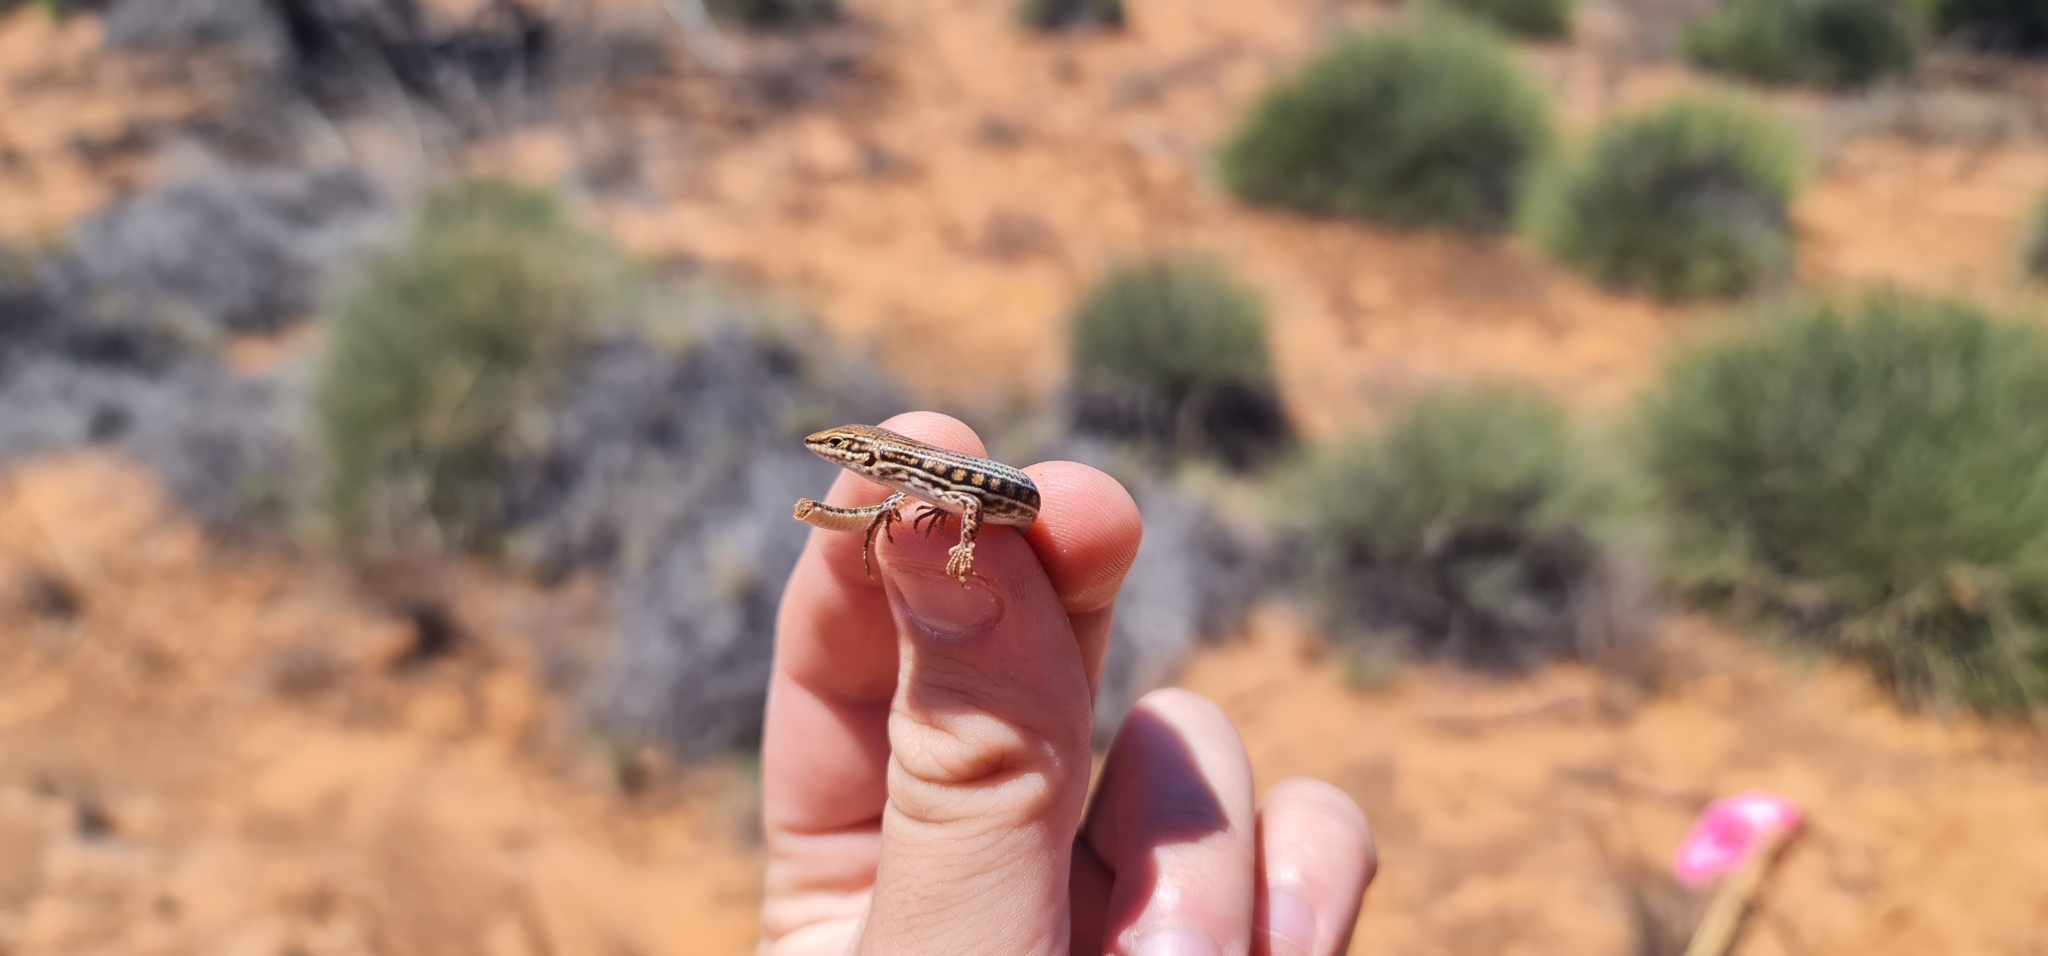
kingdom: Animalia
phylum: Chordata
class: Squamata
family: Scincidae
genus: Ctenotus
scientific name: Ctenotus schomburgkii
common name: Barred wedge-snout ctenotus
